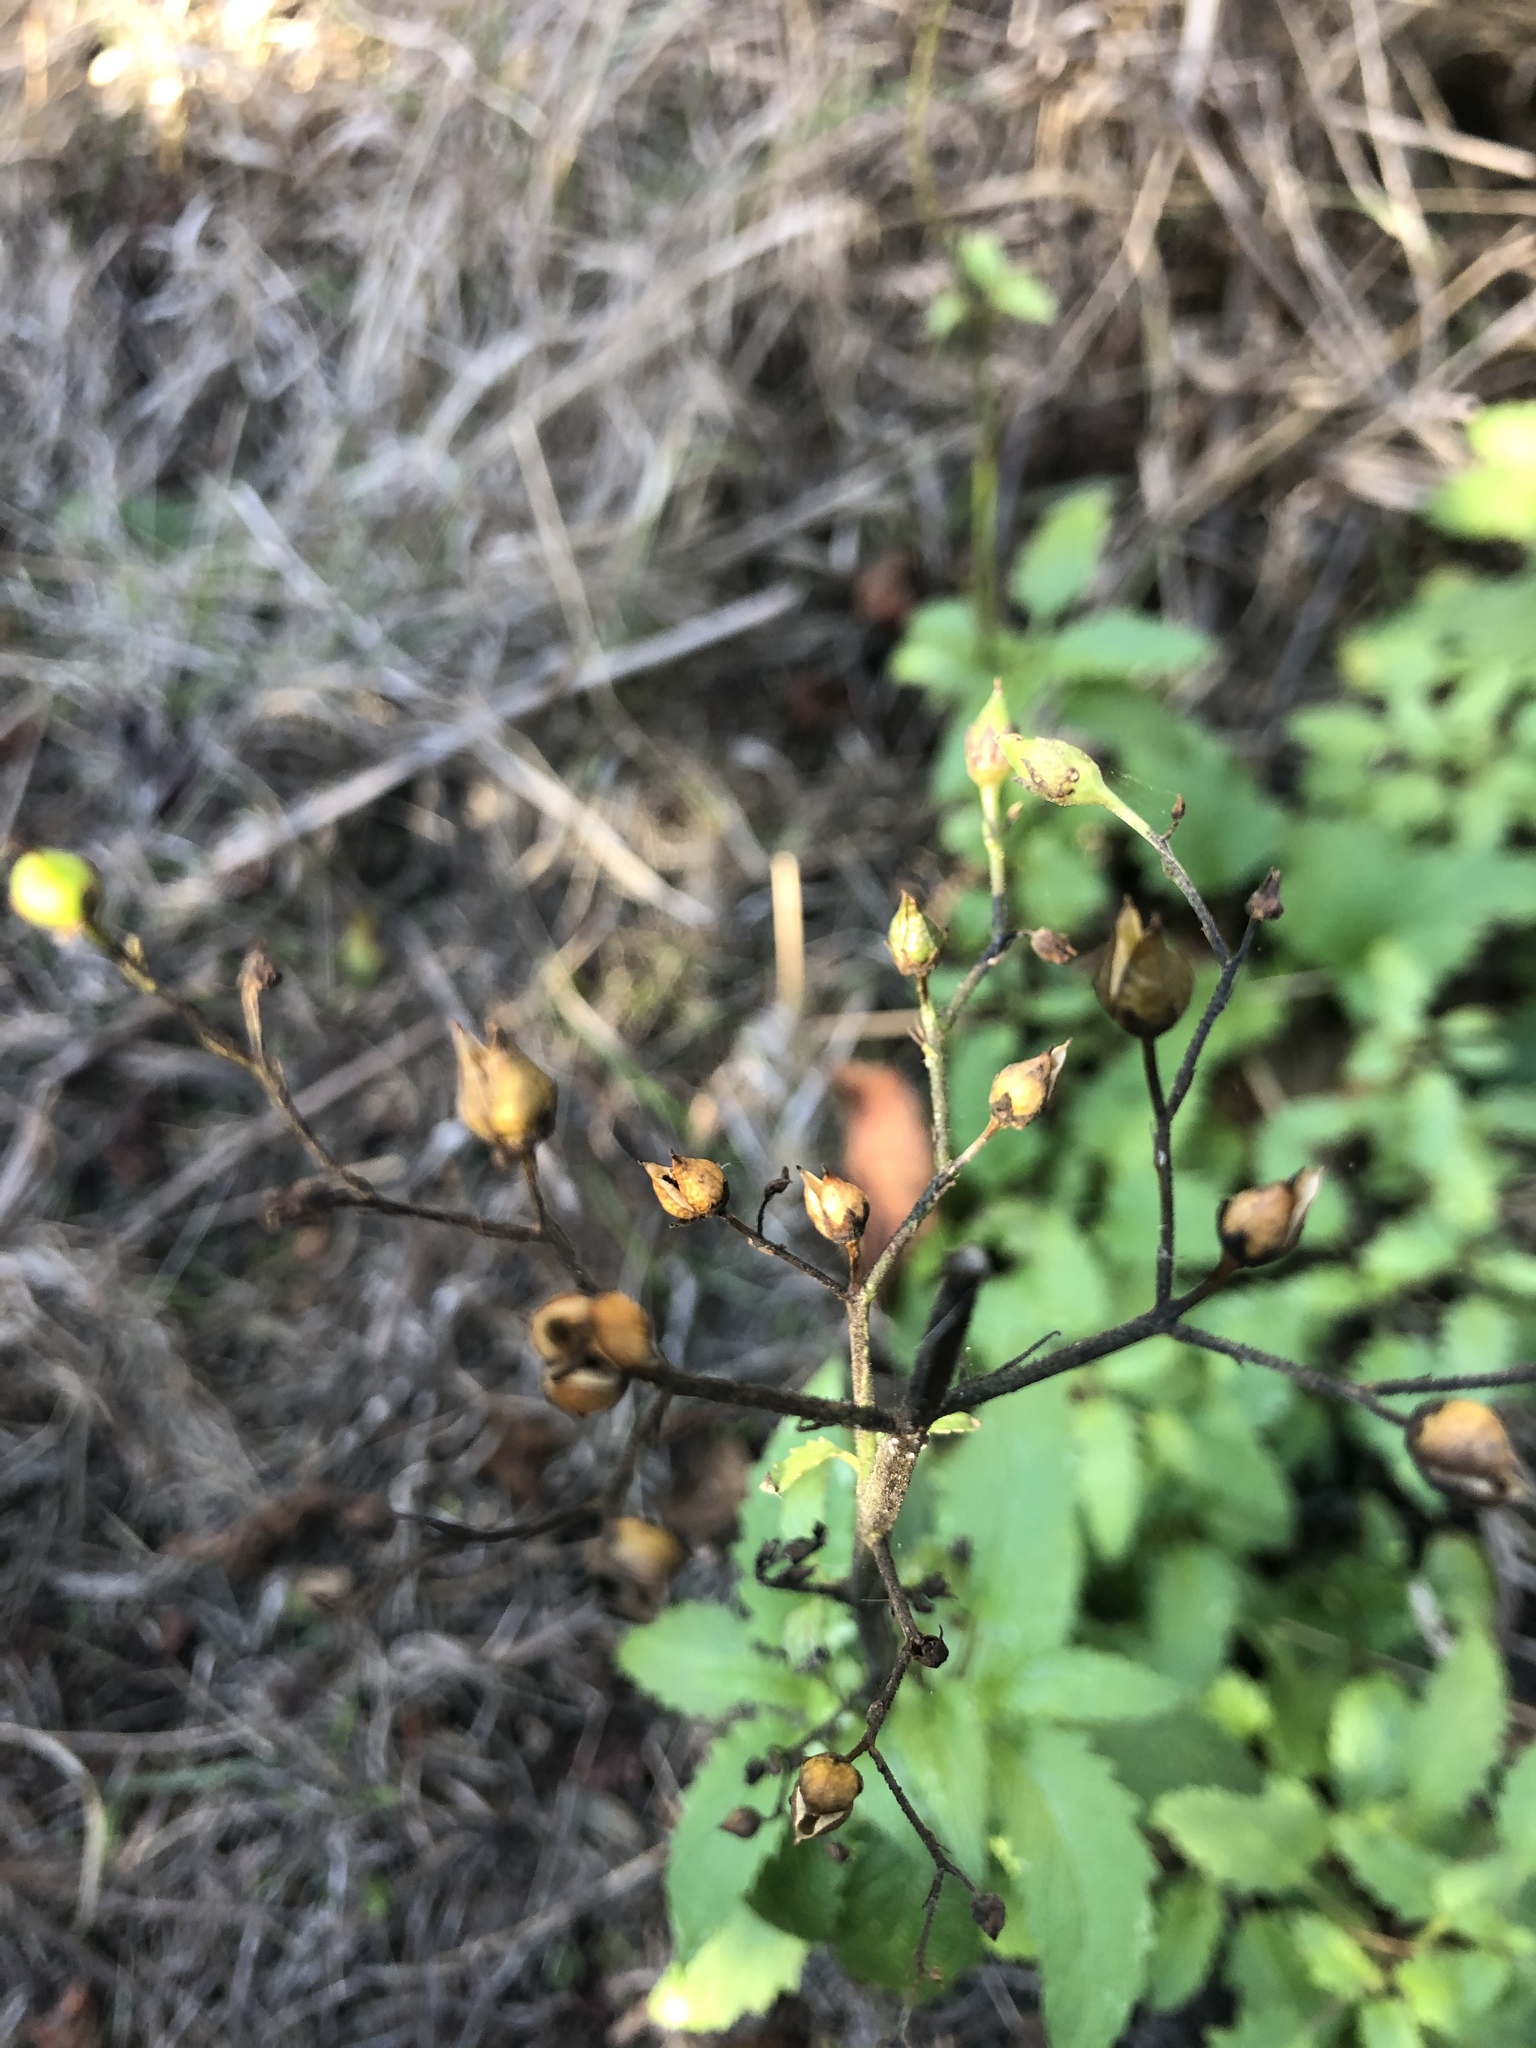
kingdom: Plantae
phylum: Tracheophyta
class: Magnoliopsida
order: Lamiales
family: Scrophulariaceae
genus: Scrophularia
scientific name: Scrophularia californica
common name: California figwort
